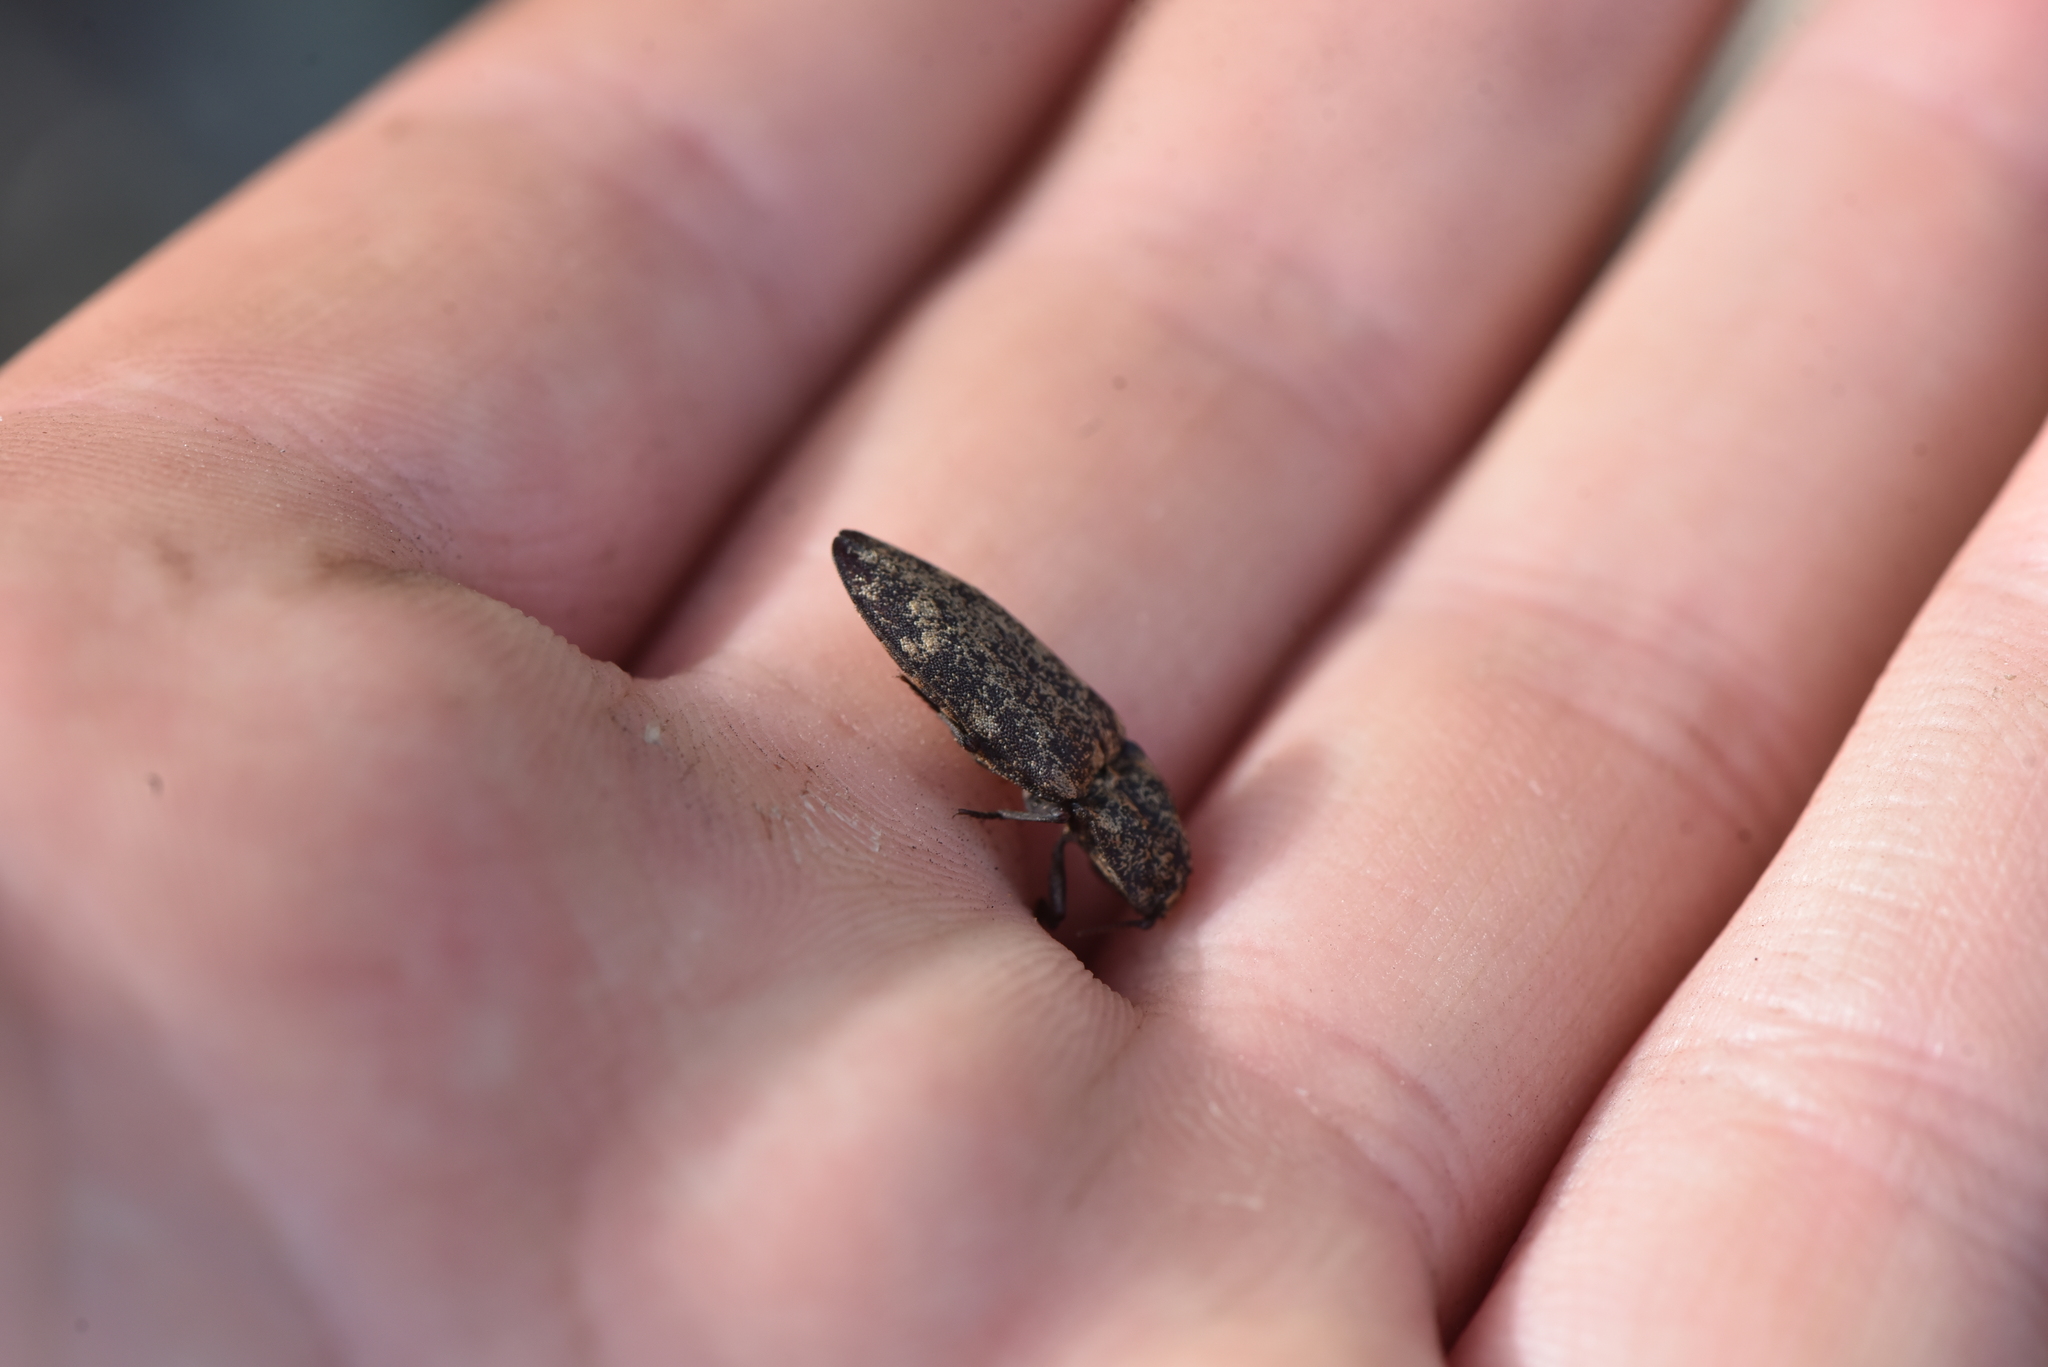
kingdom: Animalia
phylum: Arthropoda
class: Insecta
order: Coleoptera
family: Elateridae
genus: Danosoma
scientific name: Danosoma brevicorne
